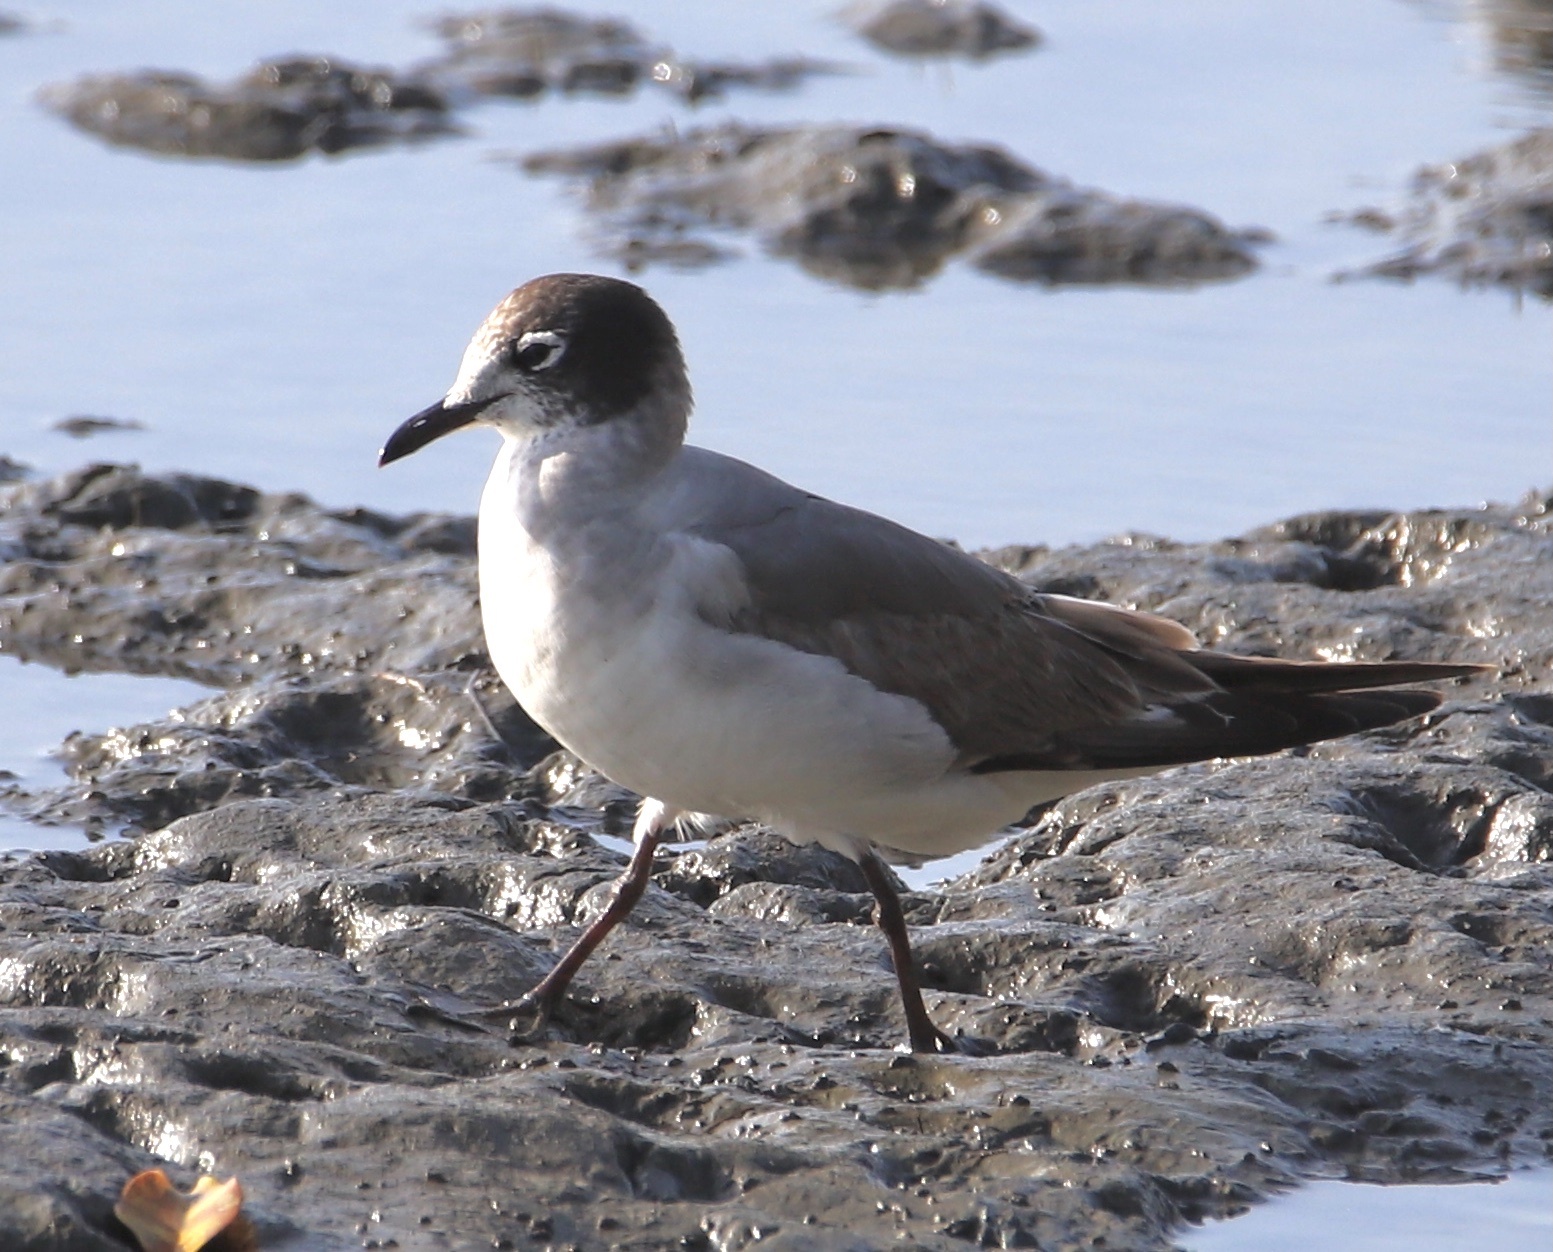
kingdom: Animalia
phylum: Chordata
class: Aves
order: Charadriiformes
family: Laridae
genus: Leucophaeus
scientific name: Leucophaeus pipixcan
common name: Franklin's gull
